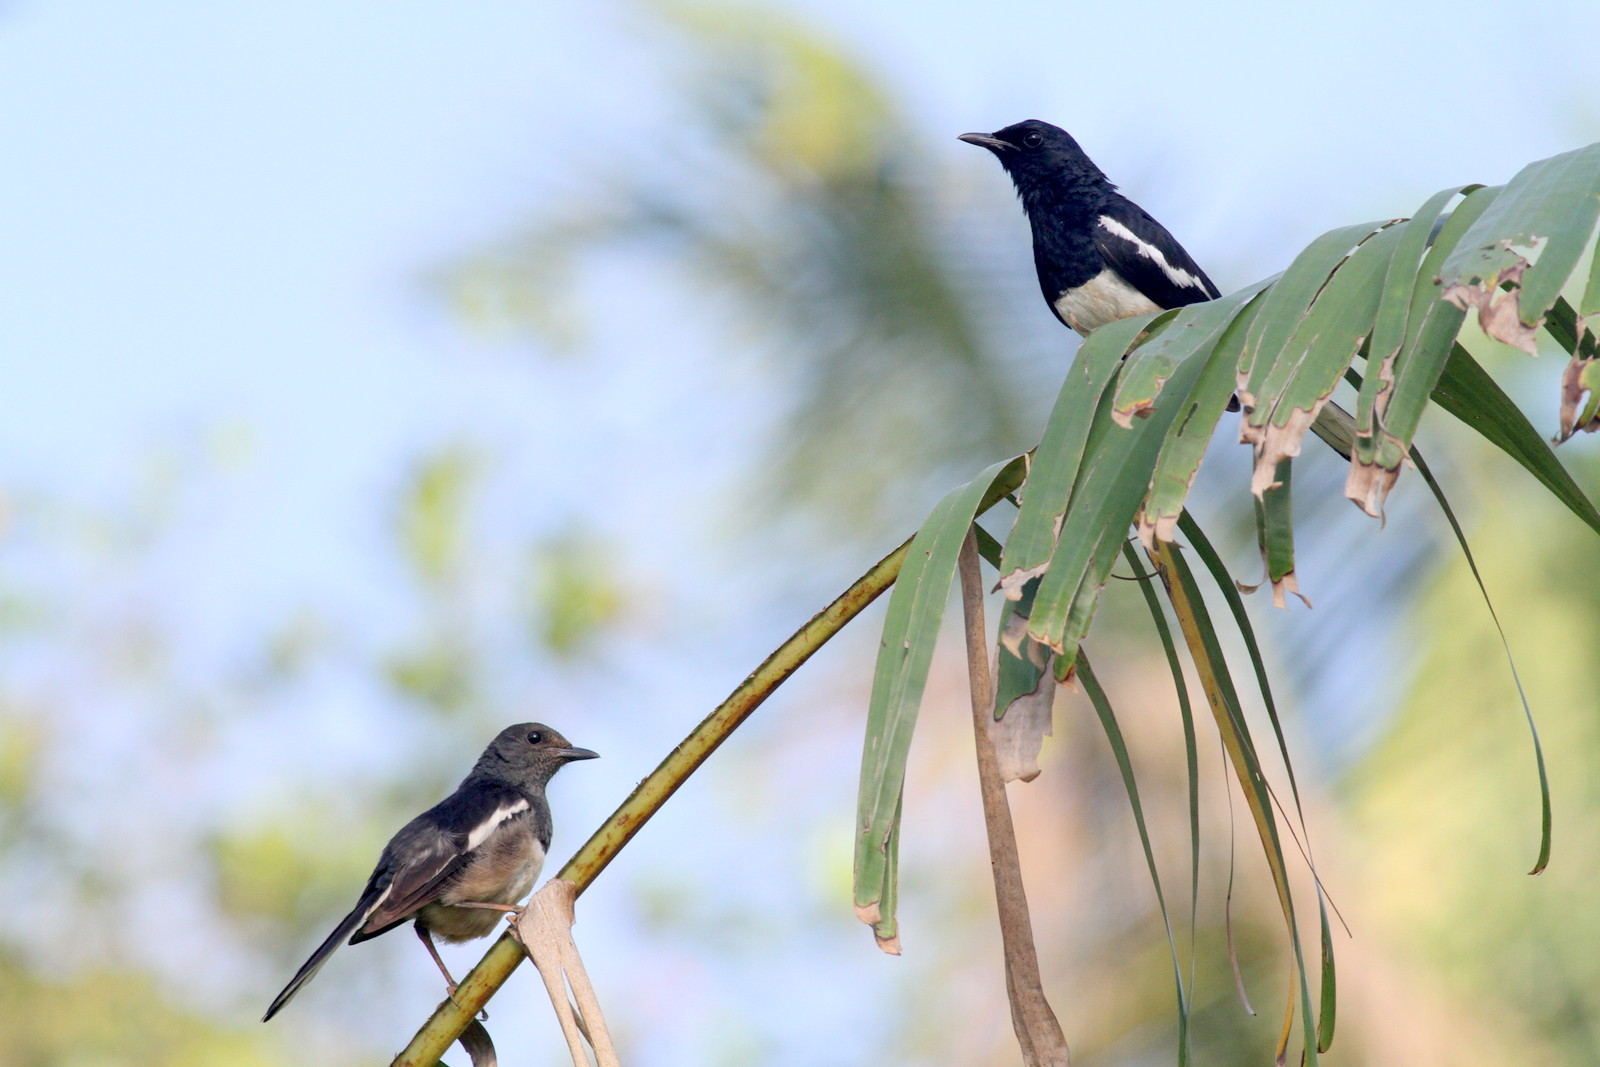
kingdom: Animalia
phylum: Chordata
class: Aves
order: Passeriformes
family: Muscicapidae
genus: Copsychus
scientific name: Copsychus saularis
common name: Oriental magpie-robin
